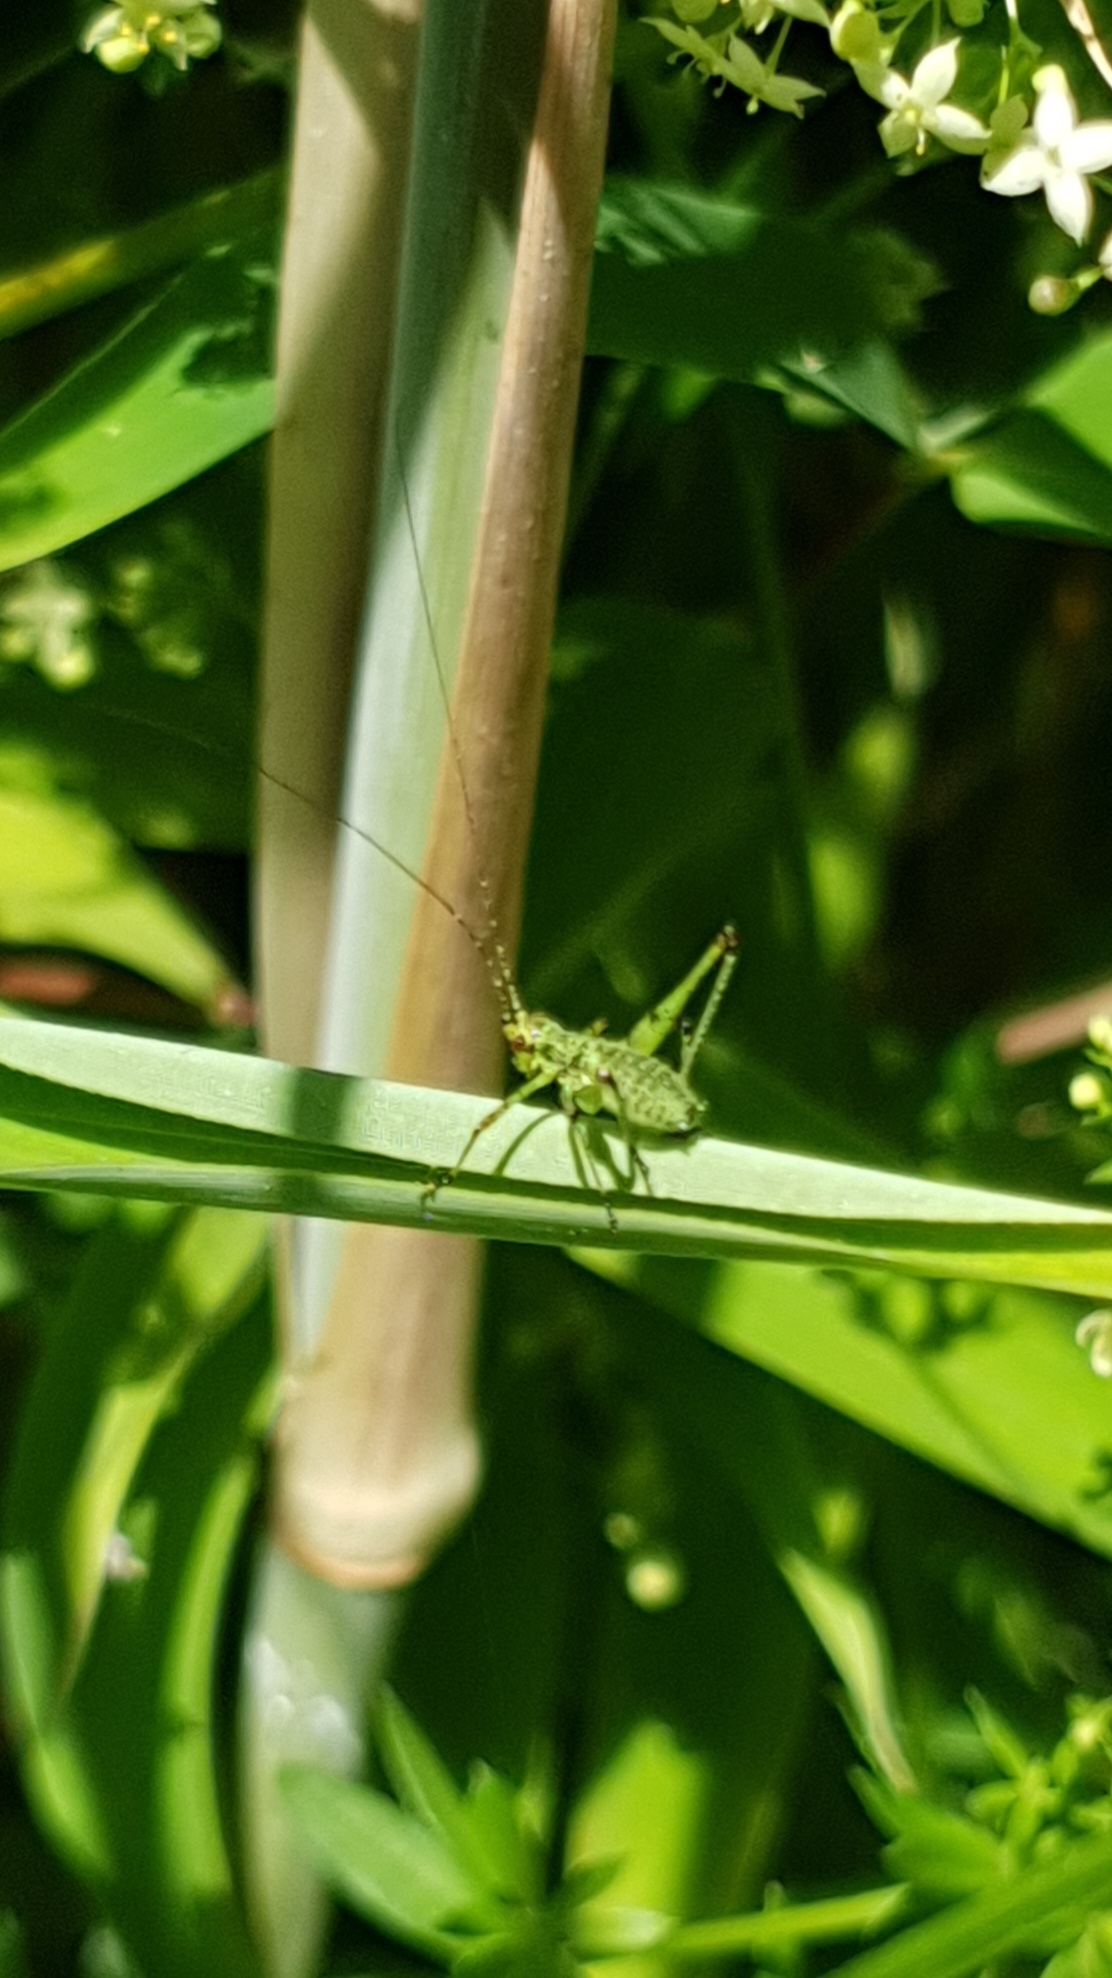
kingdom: Animalia
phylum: Arthropoda
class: Insecta
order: Orthoptera
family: Tettigoniidae
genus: Phaneroptera
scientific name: Phaneroptera nana
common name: Southern sickle bush-cricket
